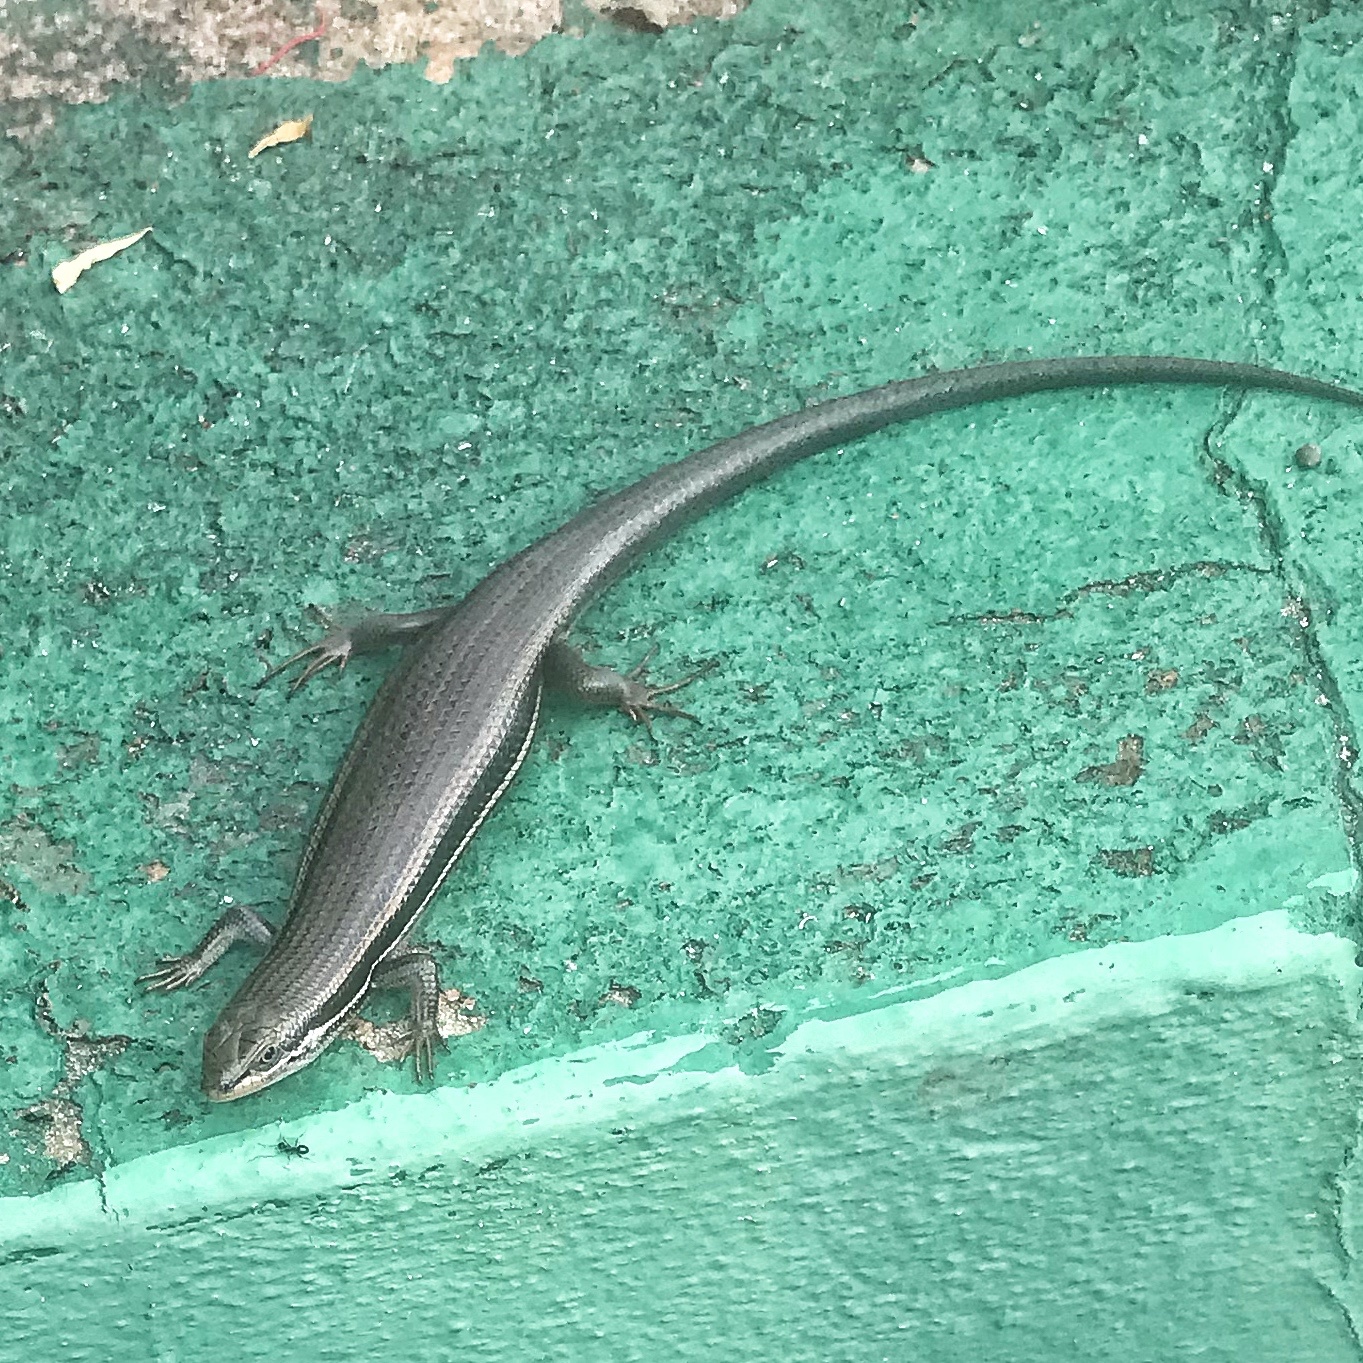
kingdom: Animalia
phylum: Chordata
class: Squamata
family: Scincidae
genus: Trachylepis
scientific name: Trachylepis homalocephala
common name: Red-sided skink
